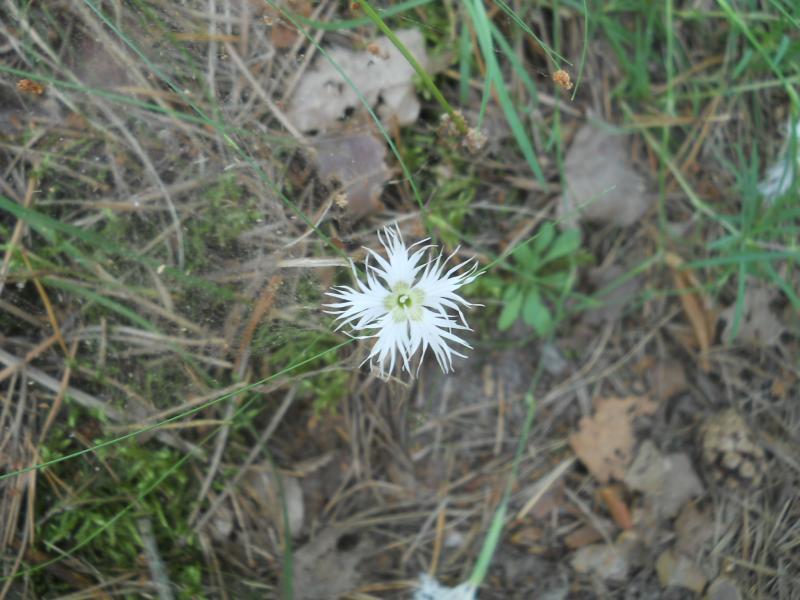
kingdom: Plantae
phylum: Tracheophyta
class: Magnoliopsida
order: Caryophyllales
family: Caryophyllaceae
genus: Dianthus
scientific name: Dianthus arenarius
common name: Stone pink
